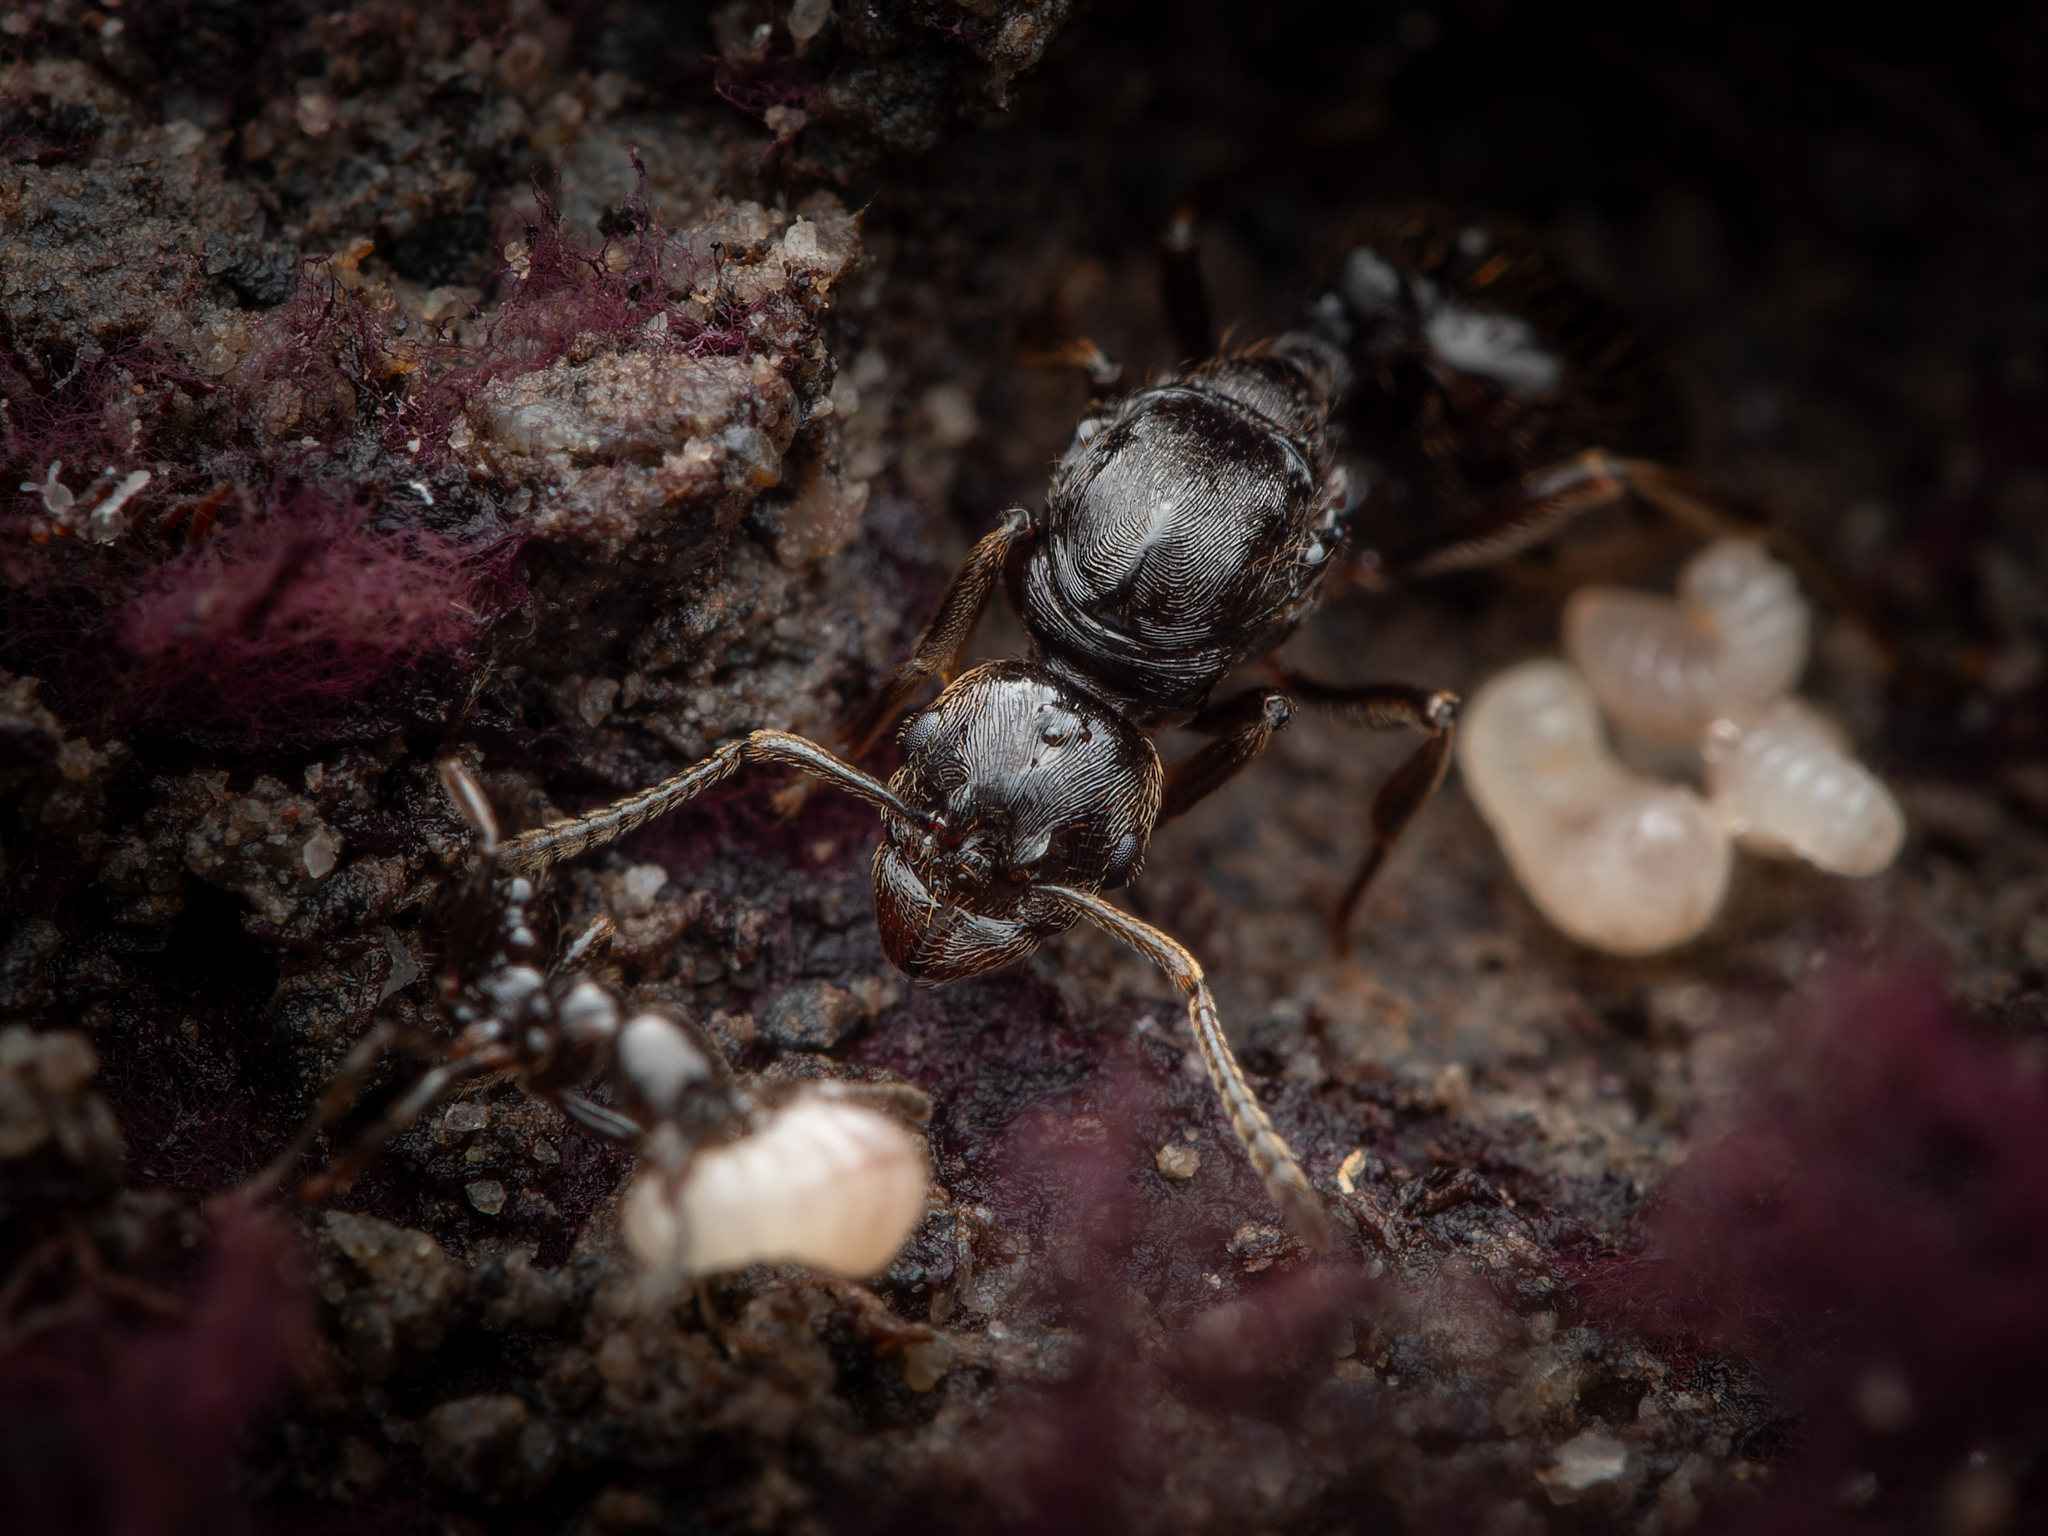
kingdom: Animalia
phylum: Arthropoda
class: Insecta
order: Hymenoptera
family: Formicidae
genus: Huberia
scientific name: Huberia striata
